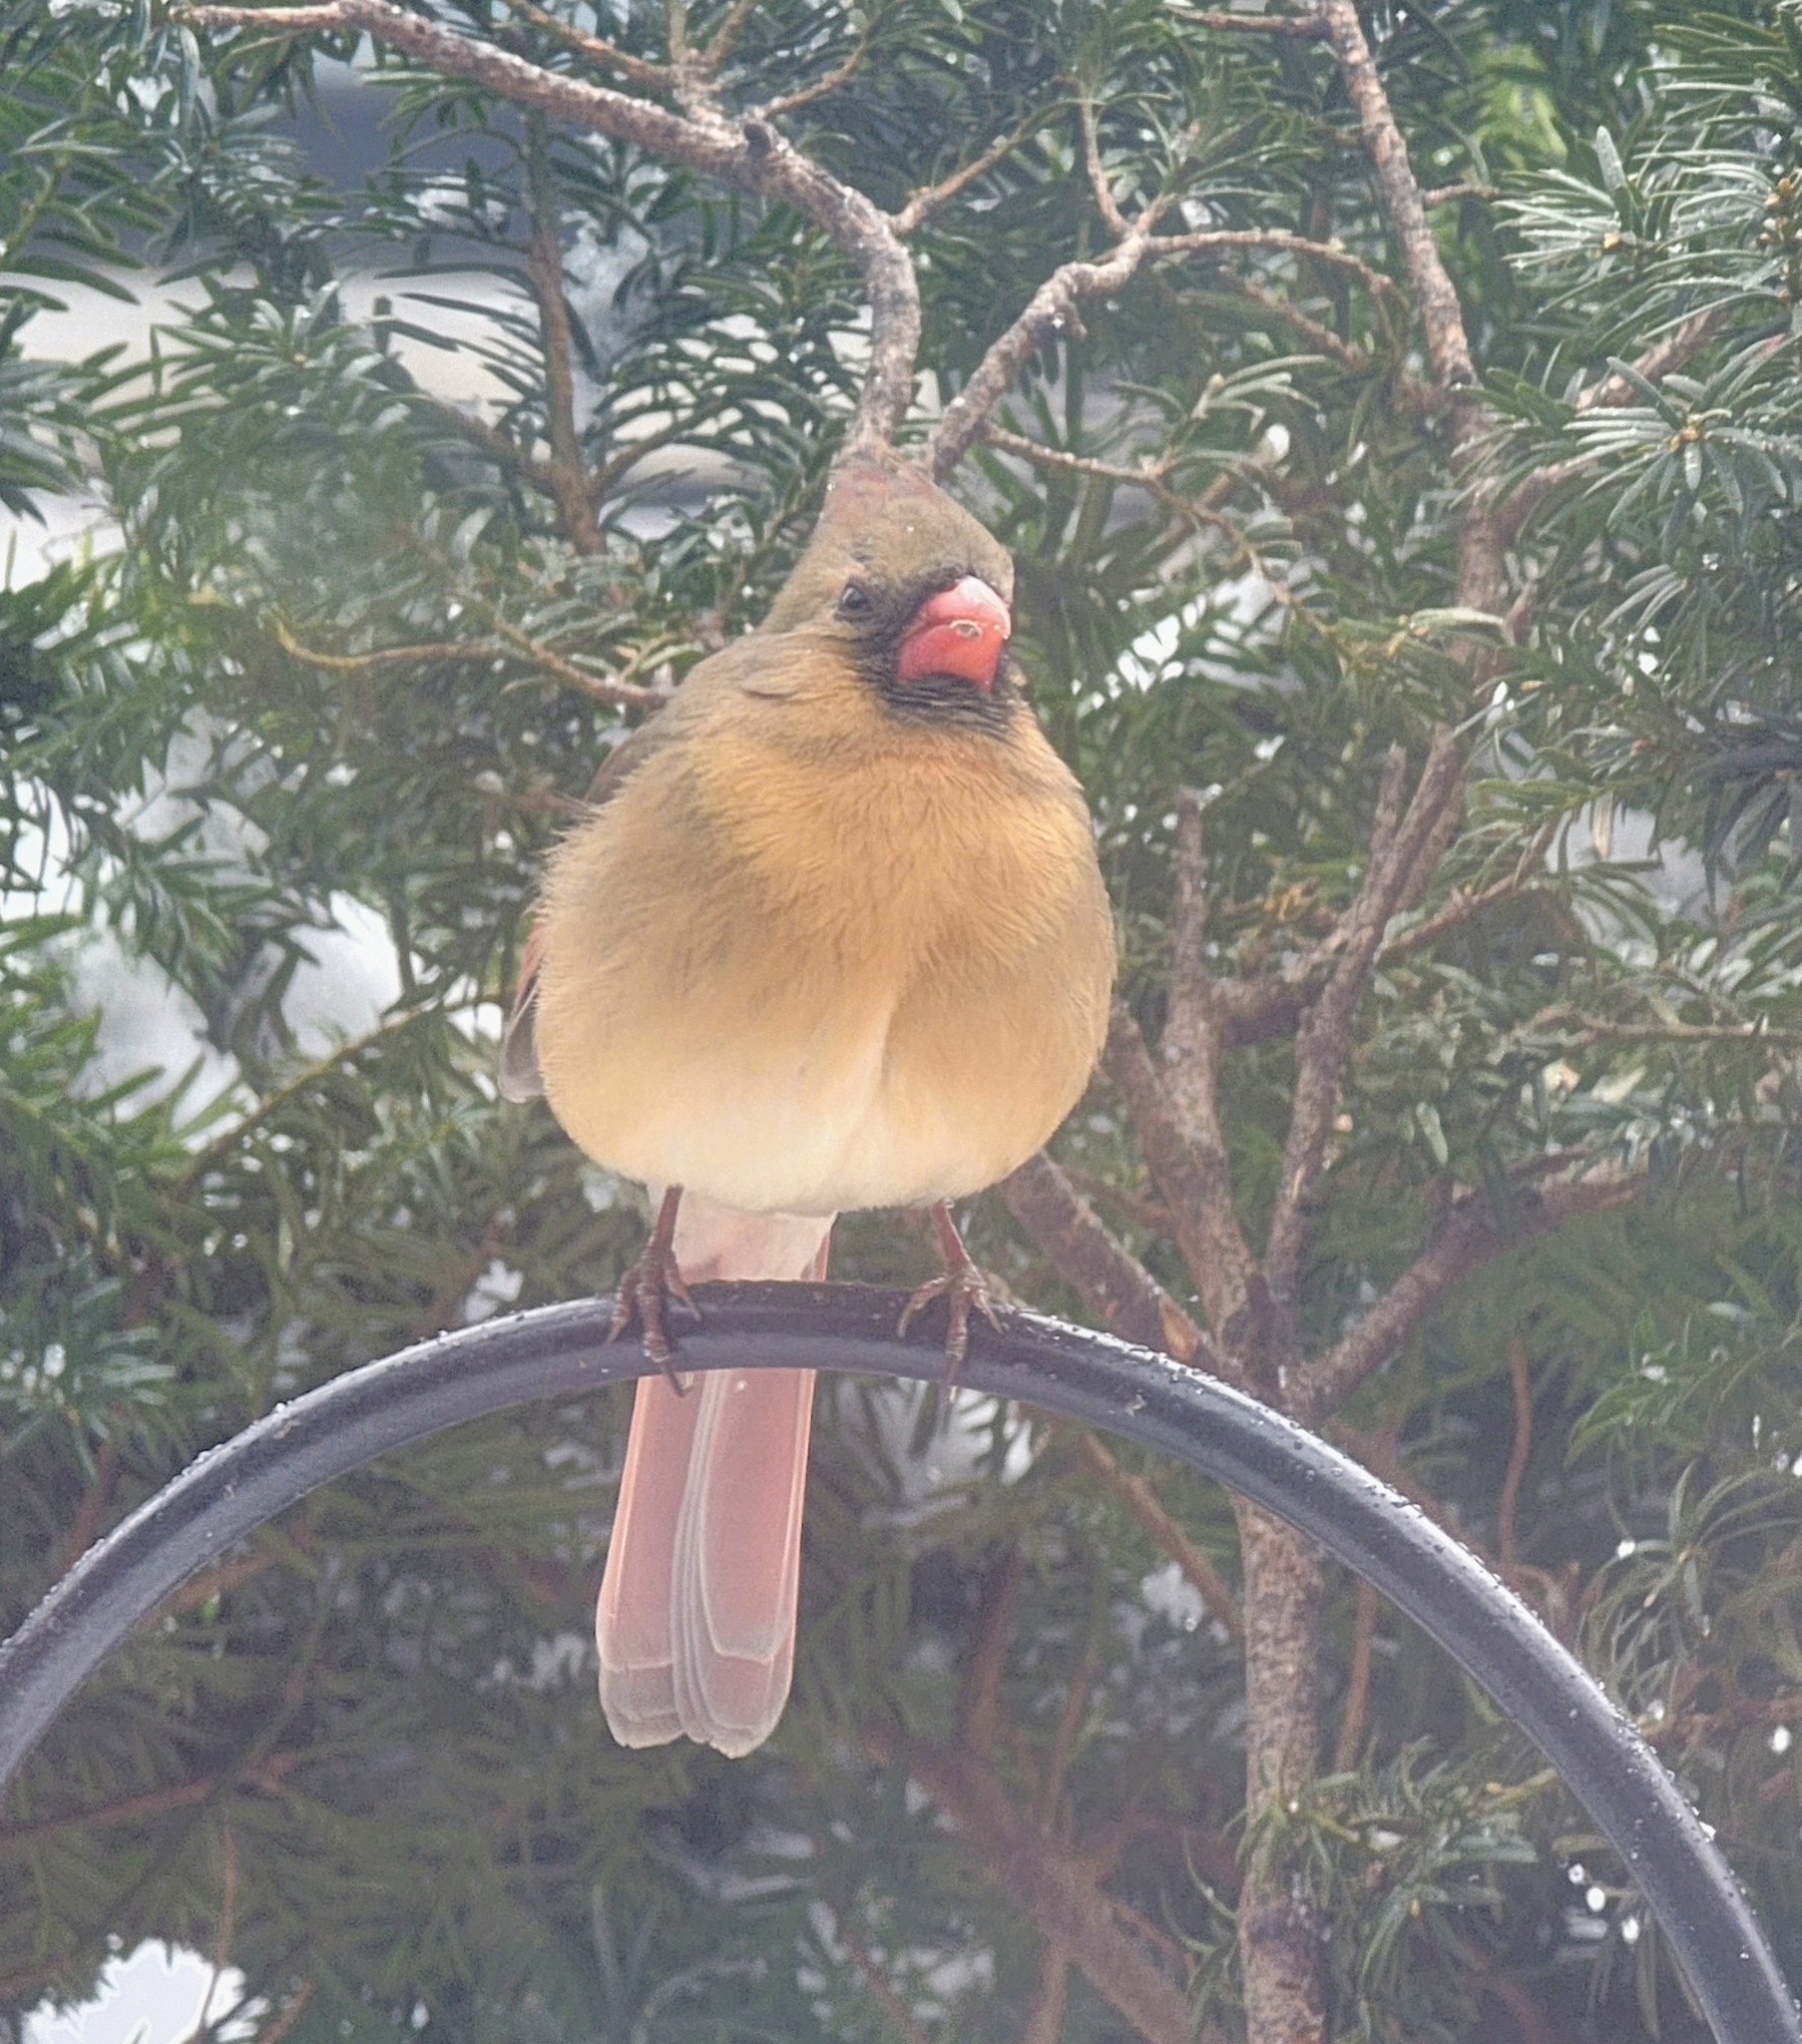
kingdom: Animalia
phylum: Chordata
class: Aves
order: Passeriformes
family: Cardinalidae
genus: Cardinalis
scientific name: Cardinalis cardinalis
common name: Northern cardinal
